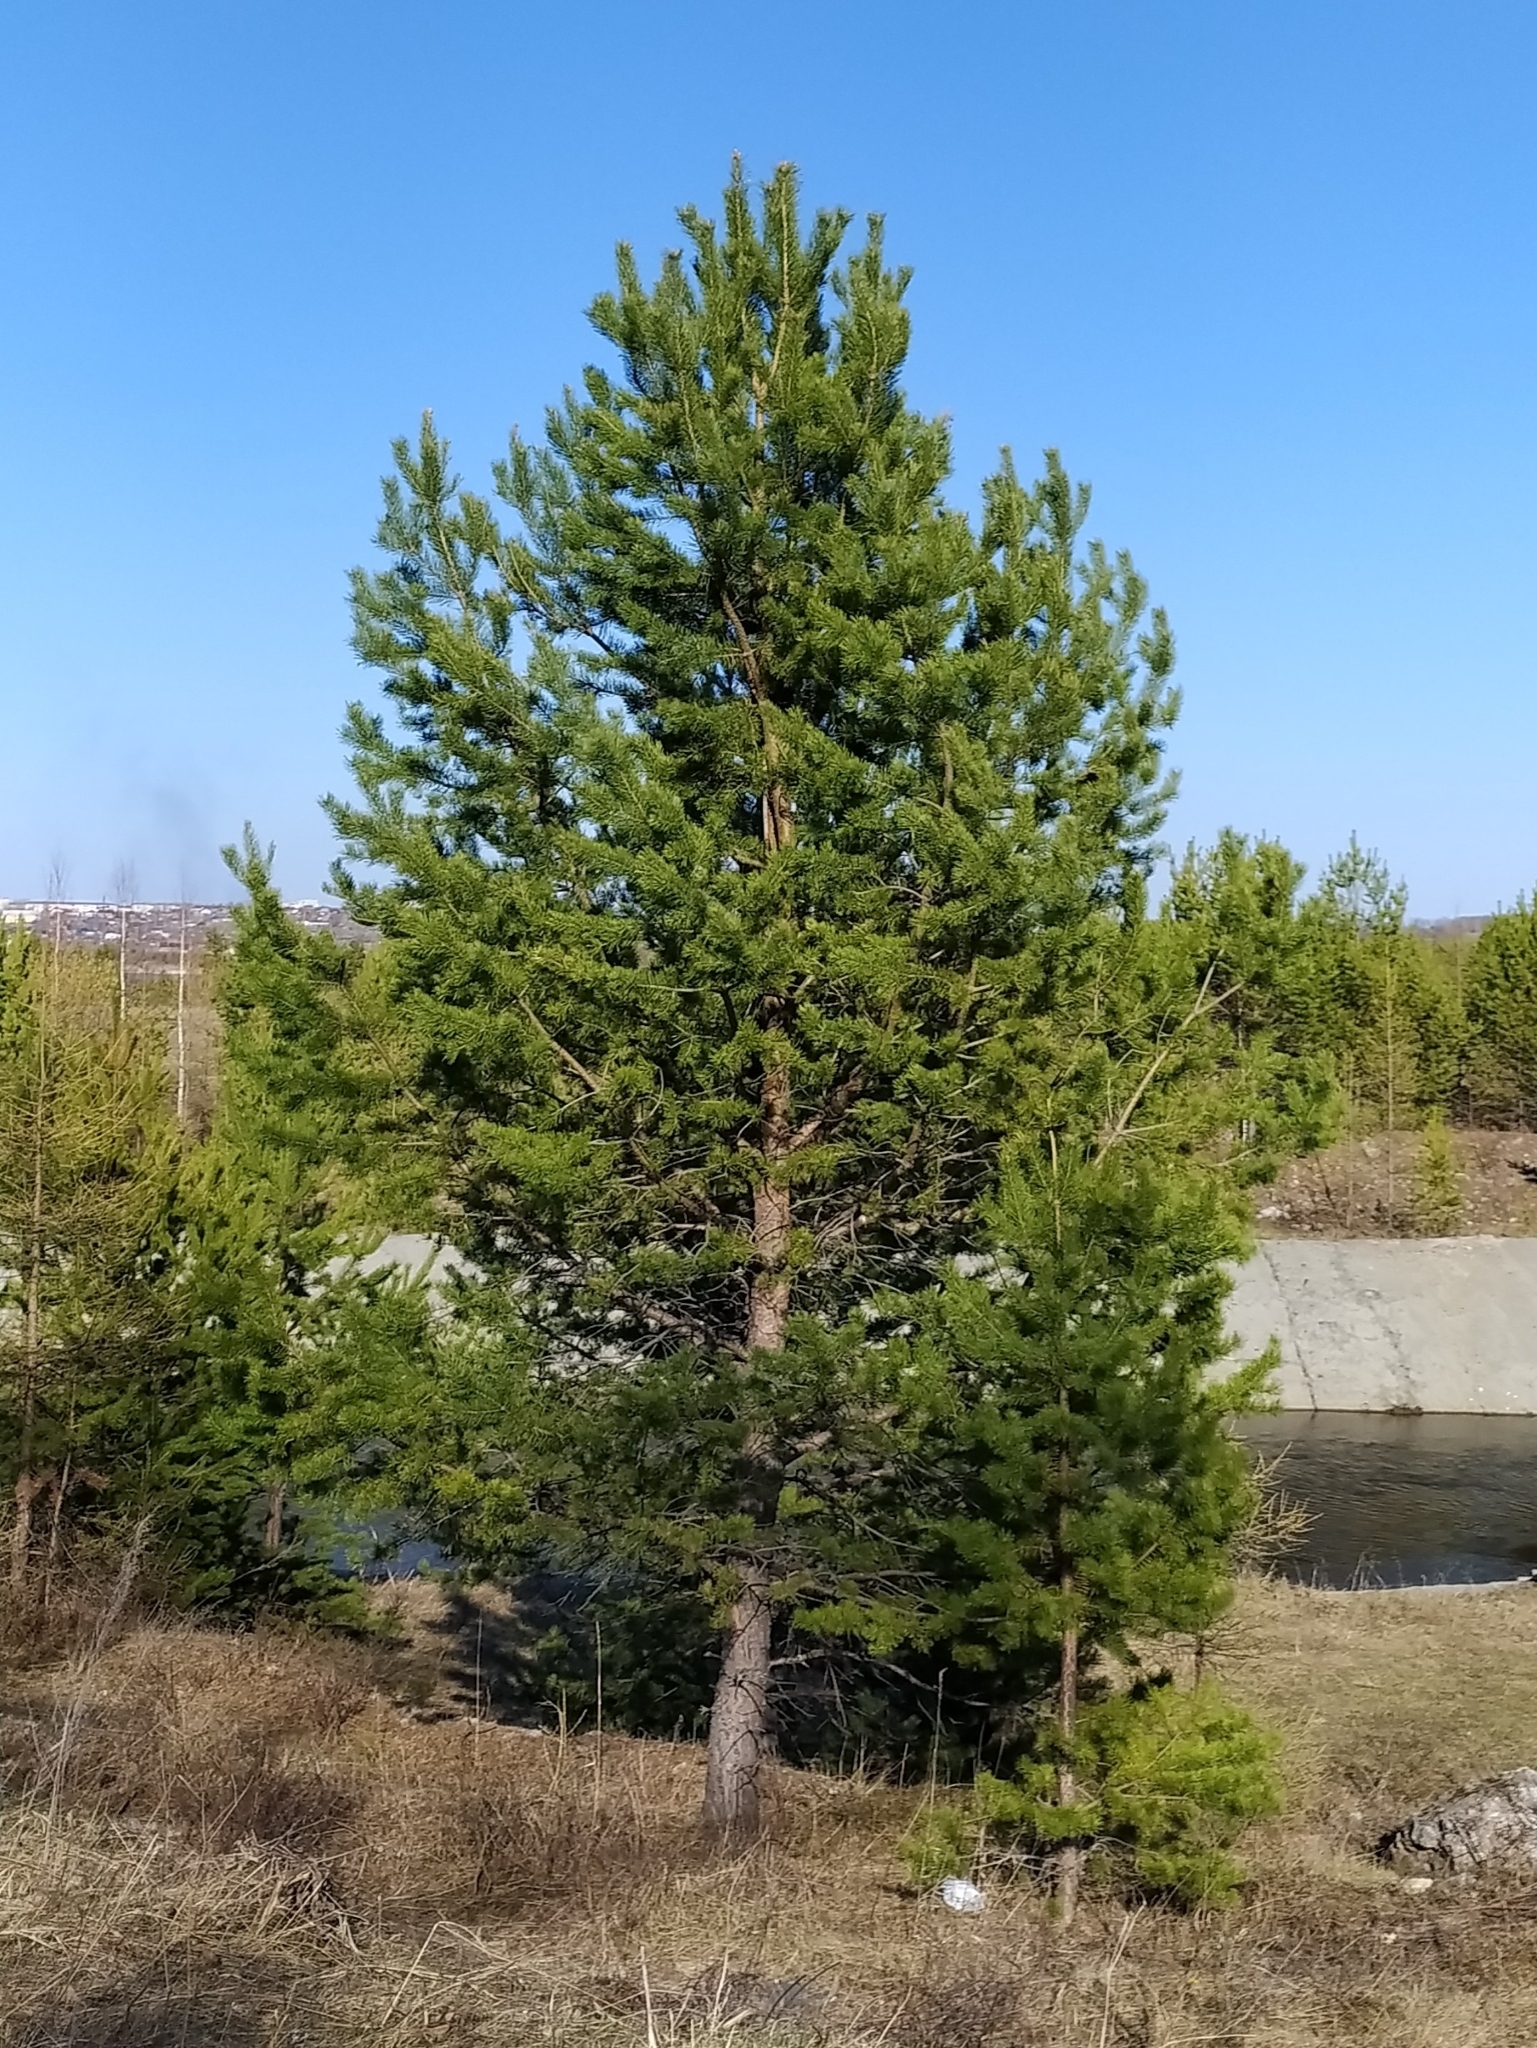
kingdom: Plantae
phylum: Tracheophyta
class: Pinopsida
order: Pinales
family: Pinaceae
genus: Pinus
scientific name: Pinus sylvestris
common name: Scots pine
